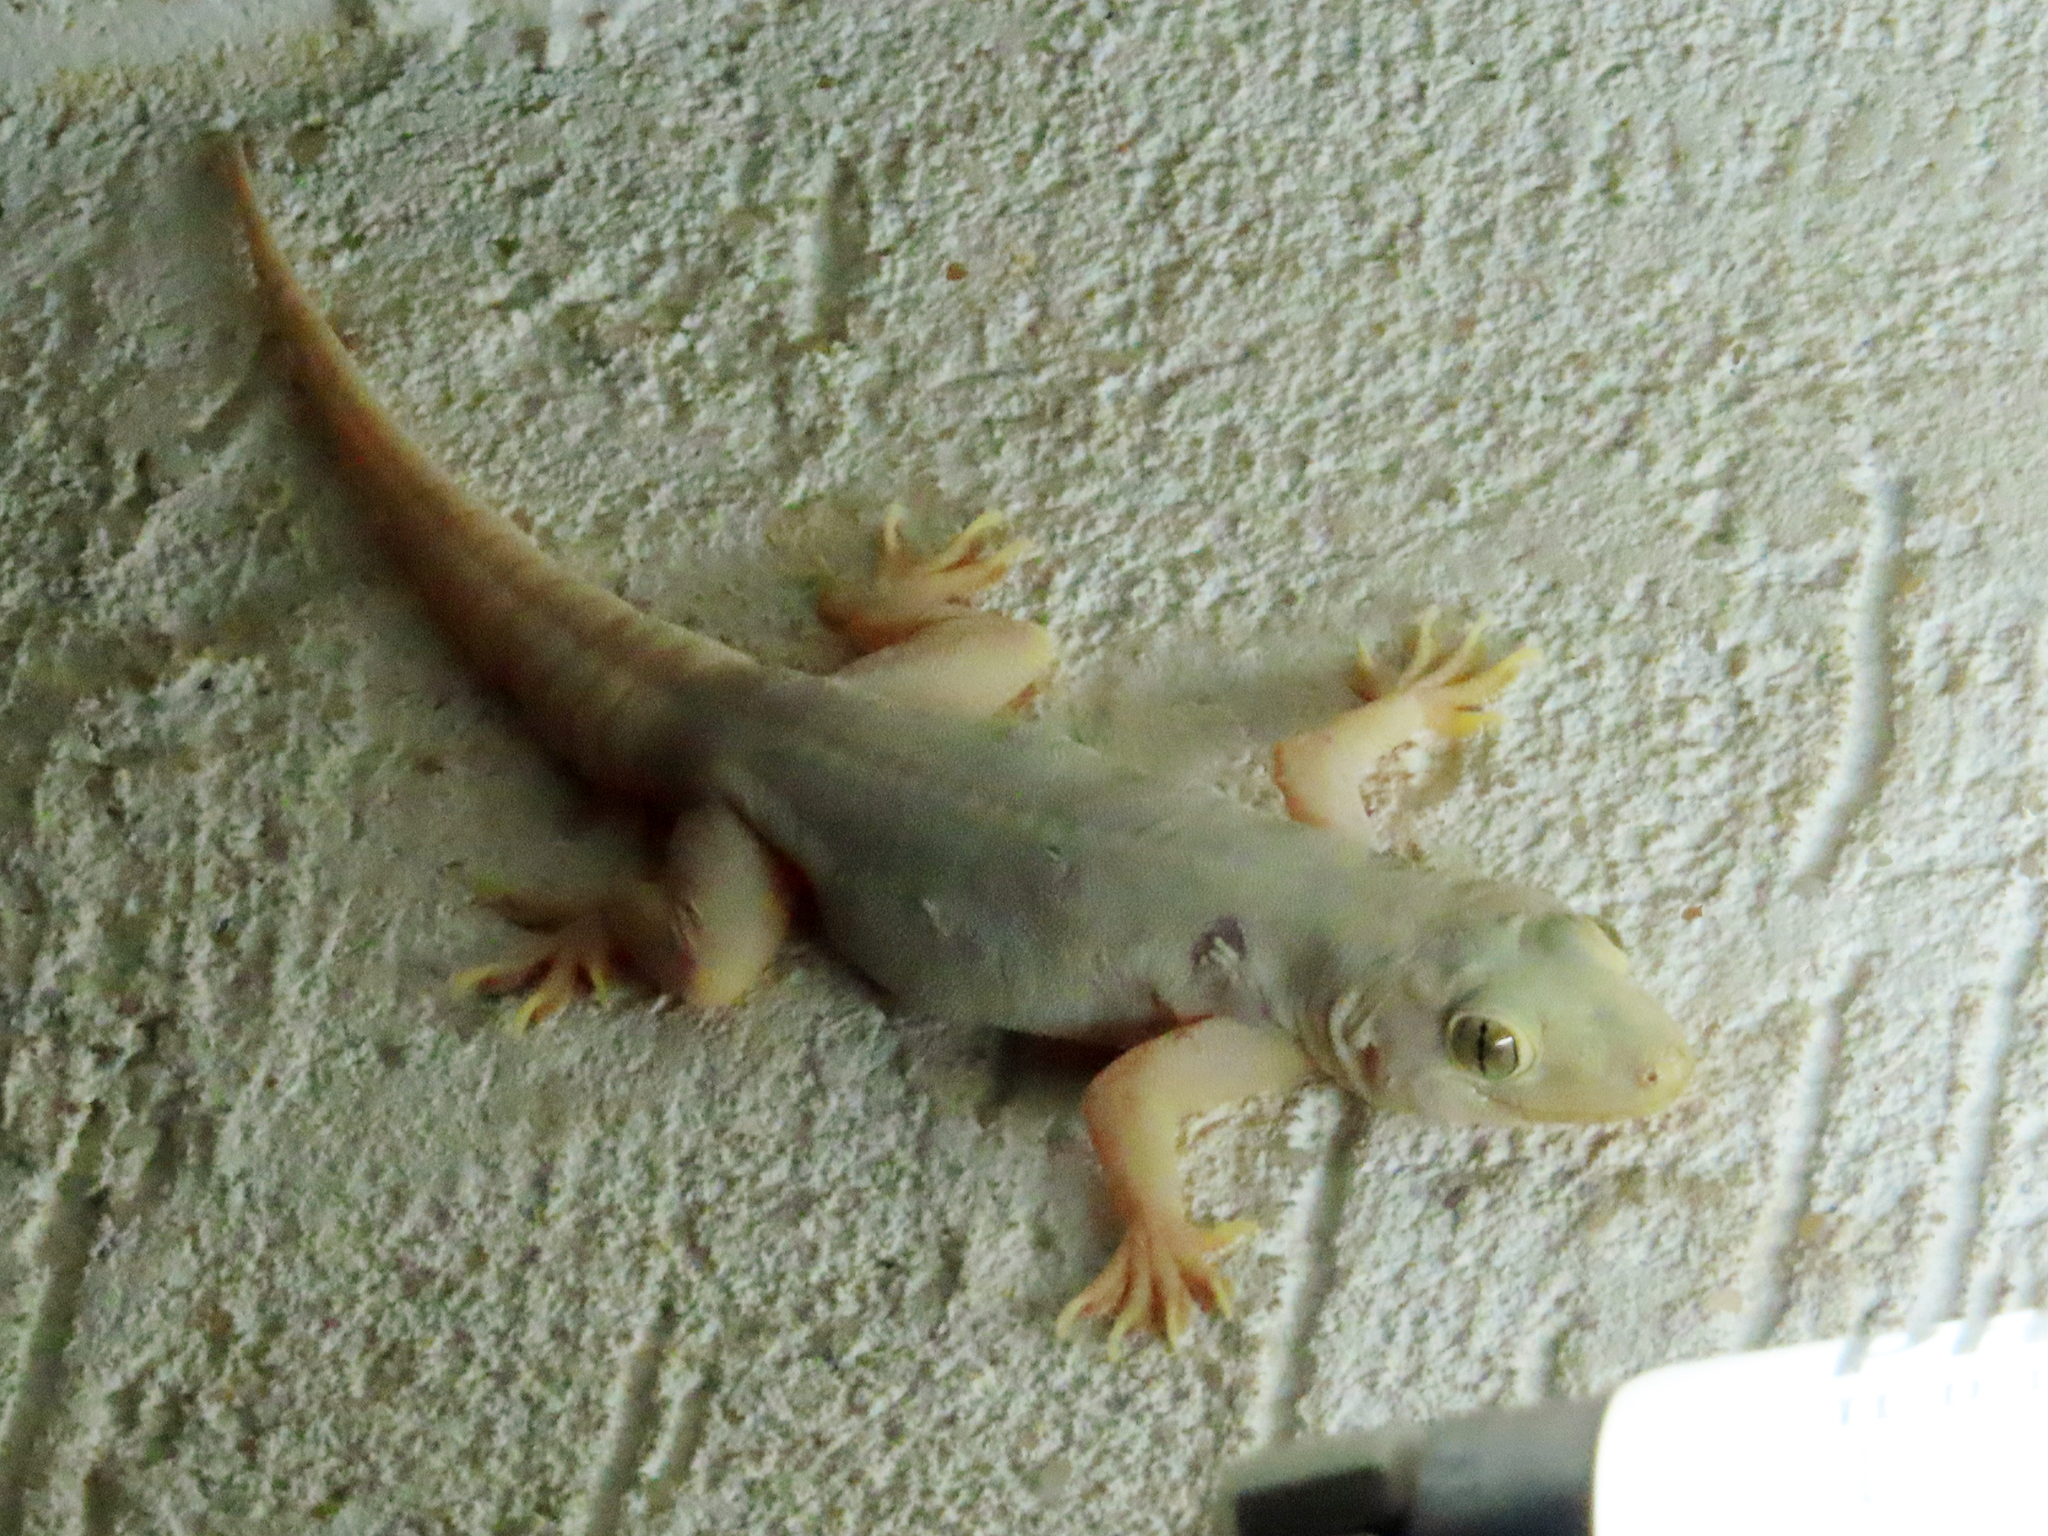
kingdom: Animalia
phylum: Chordata
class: Squamata
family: Gekkonidae
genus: Hemidactylus
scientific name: Hemidactylus flaviviridis
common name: Northern house gecko
